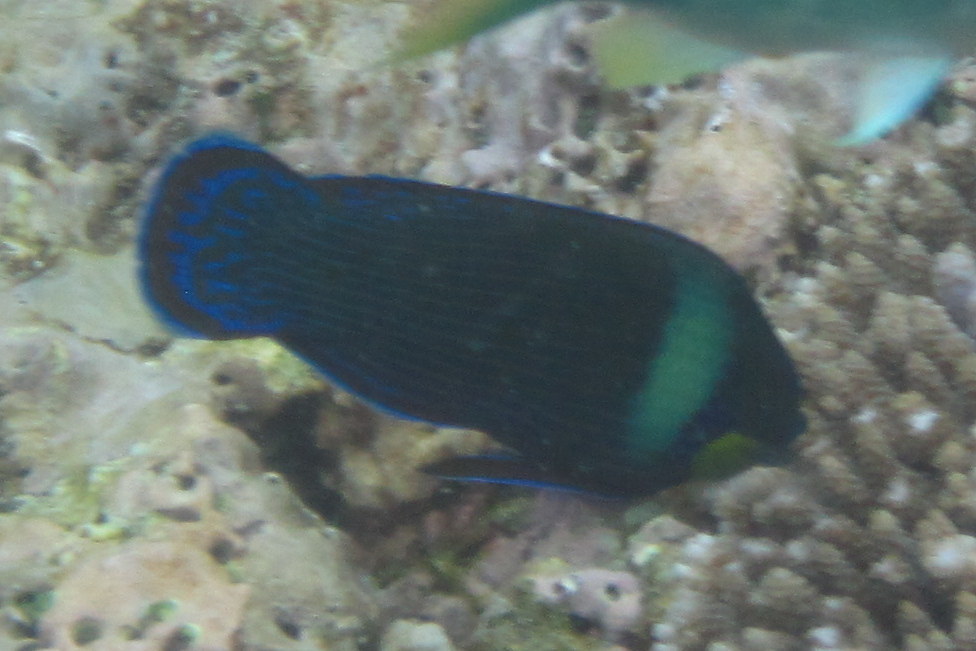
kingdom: Animalia
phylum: Chordata
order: Perciformes
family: Labridae
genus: Labrichthys
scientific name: Labrichthys unilineatus
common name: Onelined wrasse
